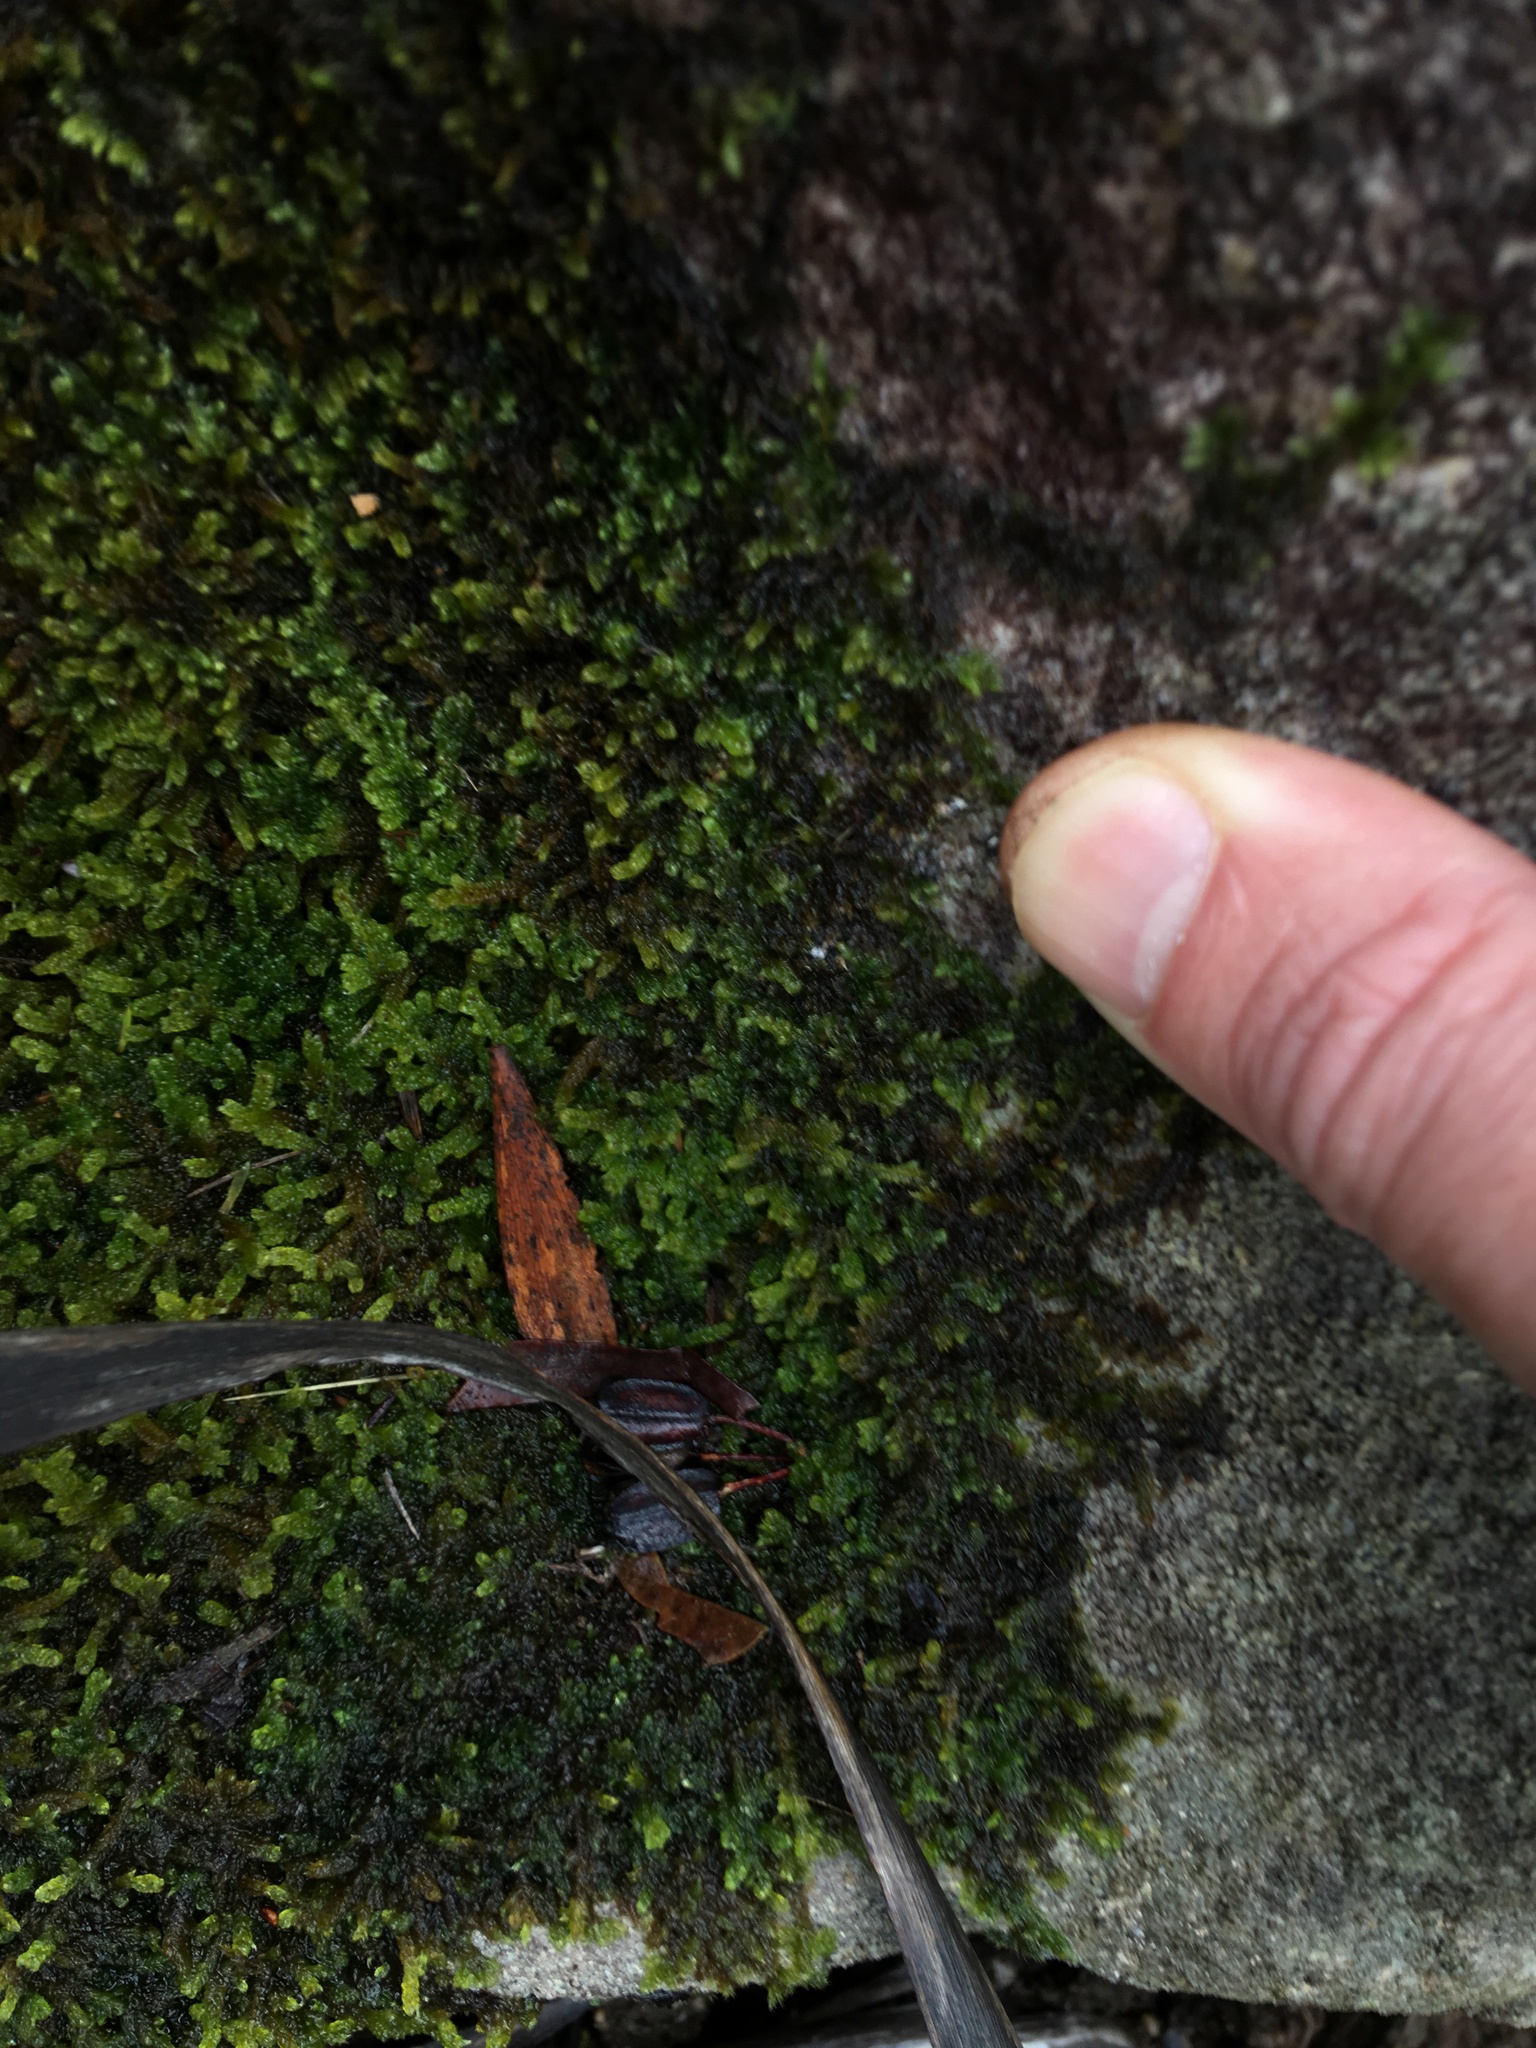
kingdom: Plantae
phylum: Bryophyta
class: Bryopsida
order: Hypnales
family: Hypnaceae
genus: Hypnum
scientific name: Hypnum cupressiforme
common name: Cypress-leaved plait-moss
